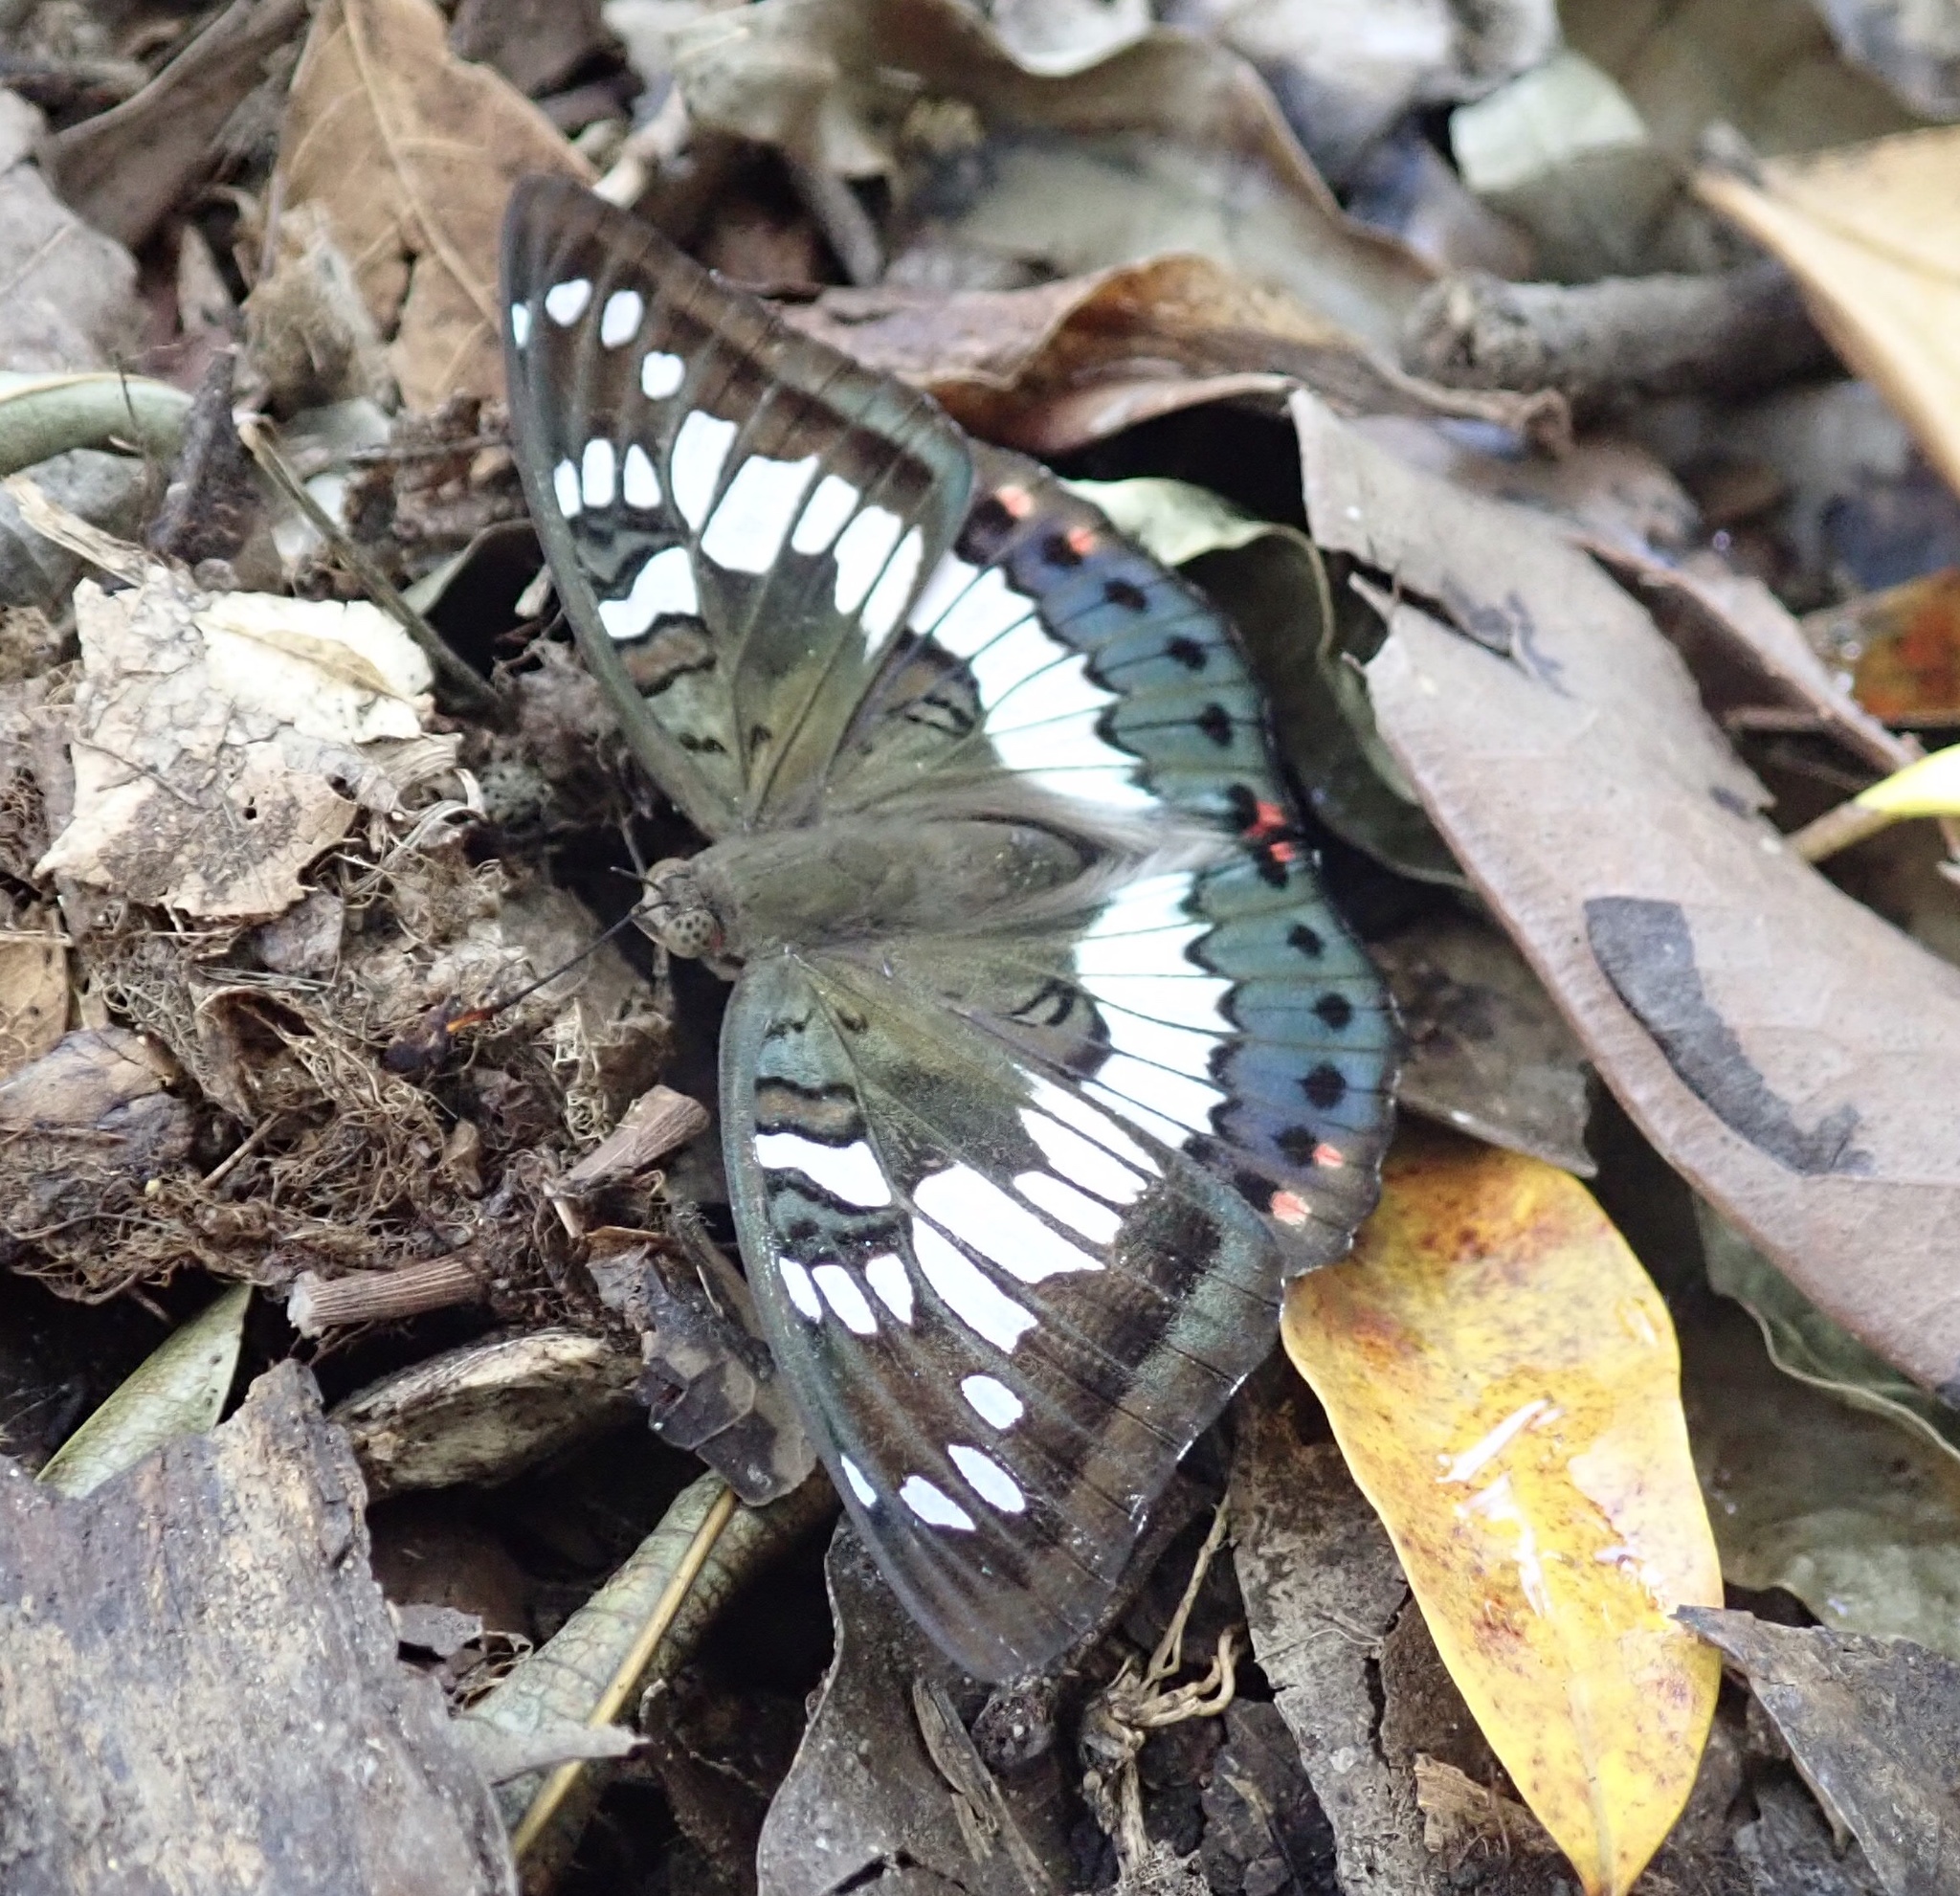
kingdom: Animalia
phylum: Arthropoda
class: Insecta
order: Lepidoptera
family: Nymphalidae
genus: Euthalia
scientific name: Euthalia adonia
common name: Green baron
